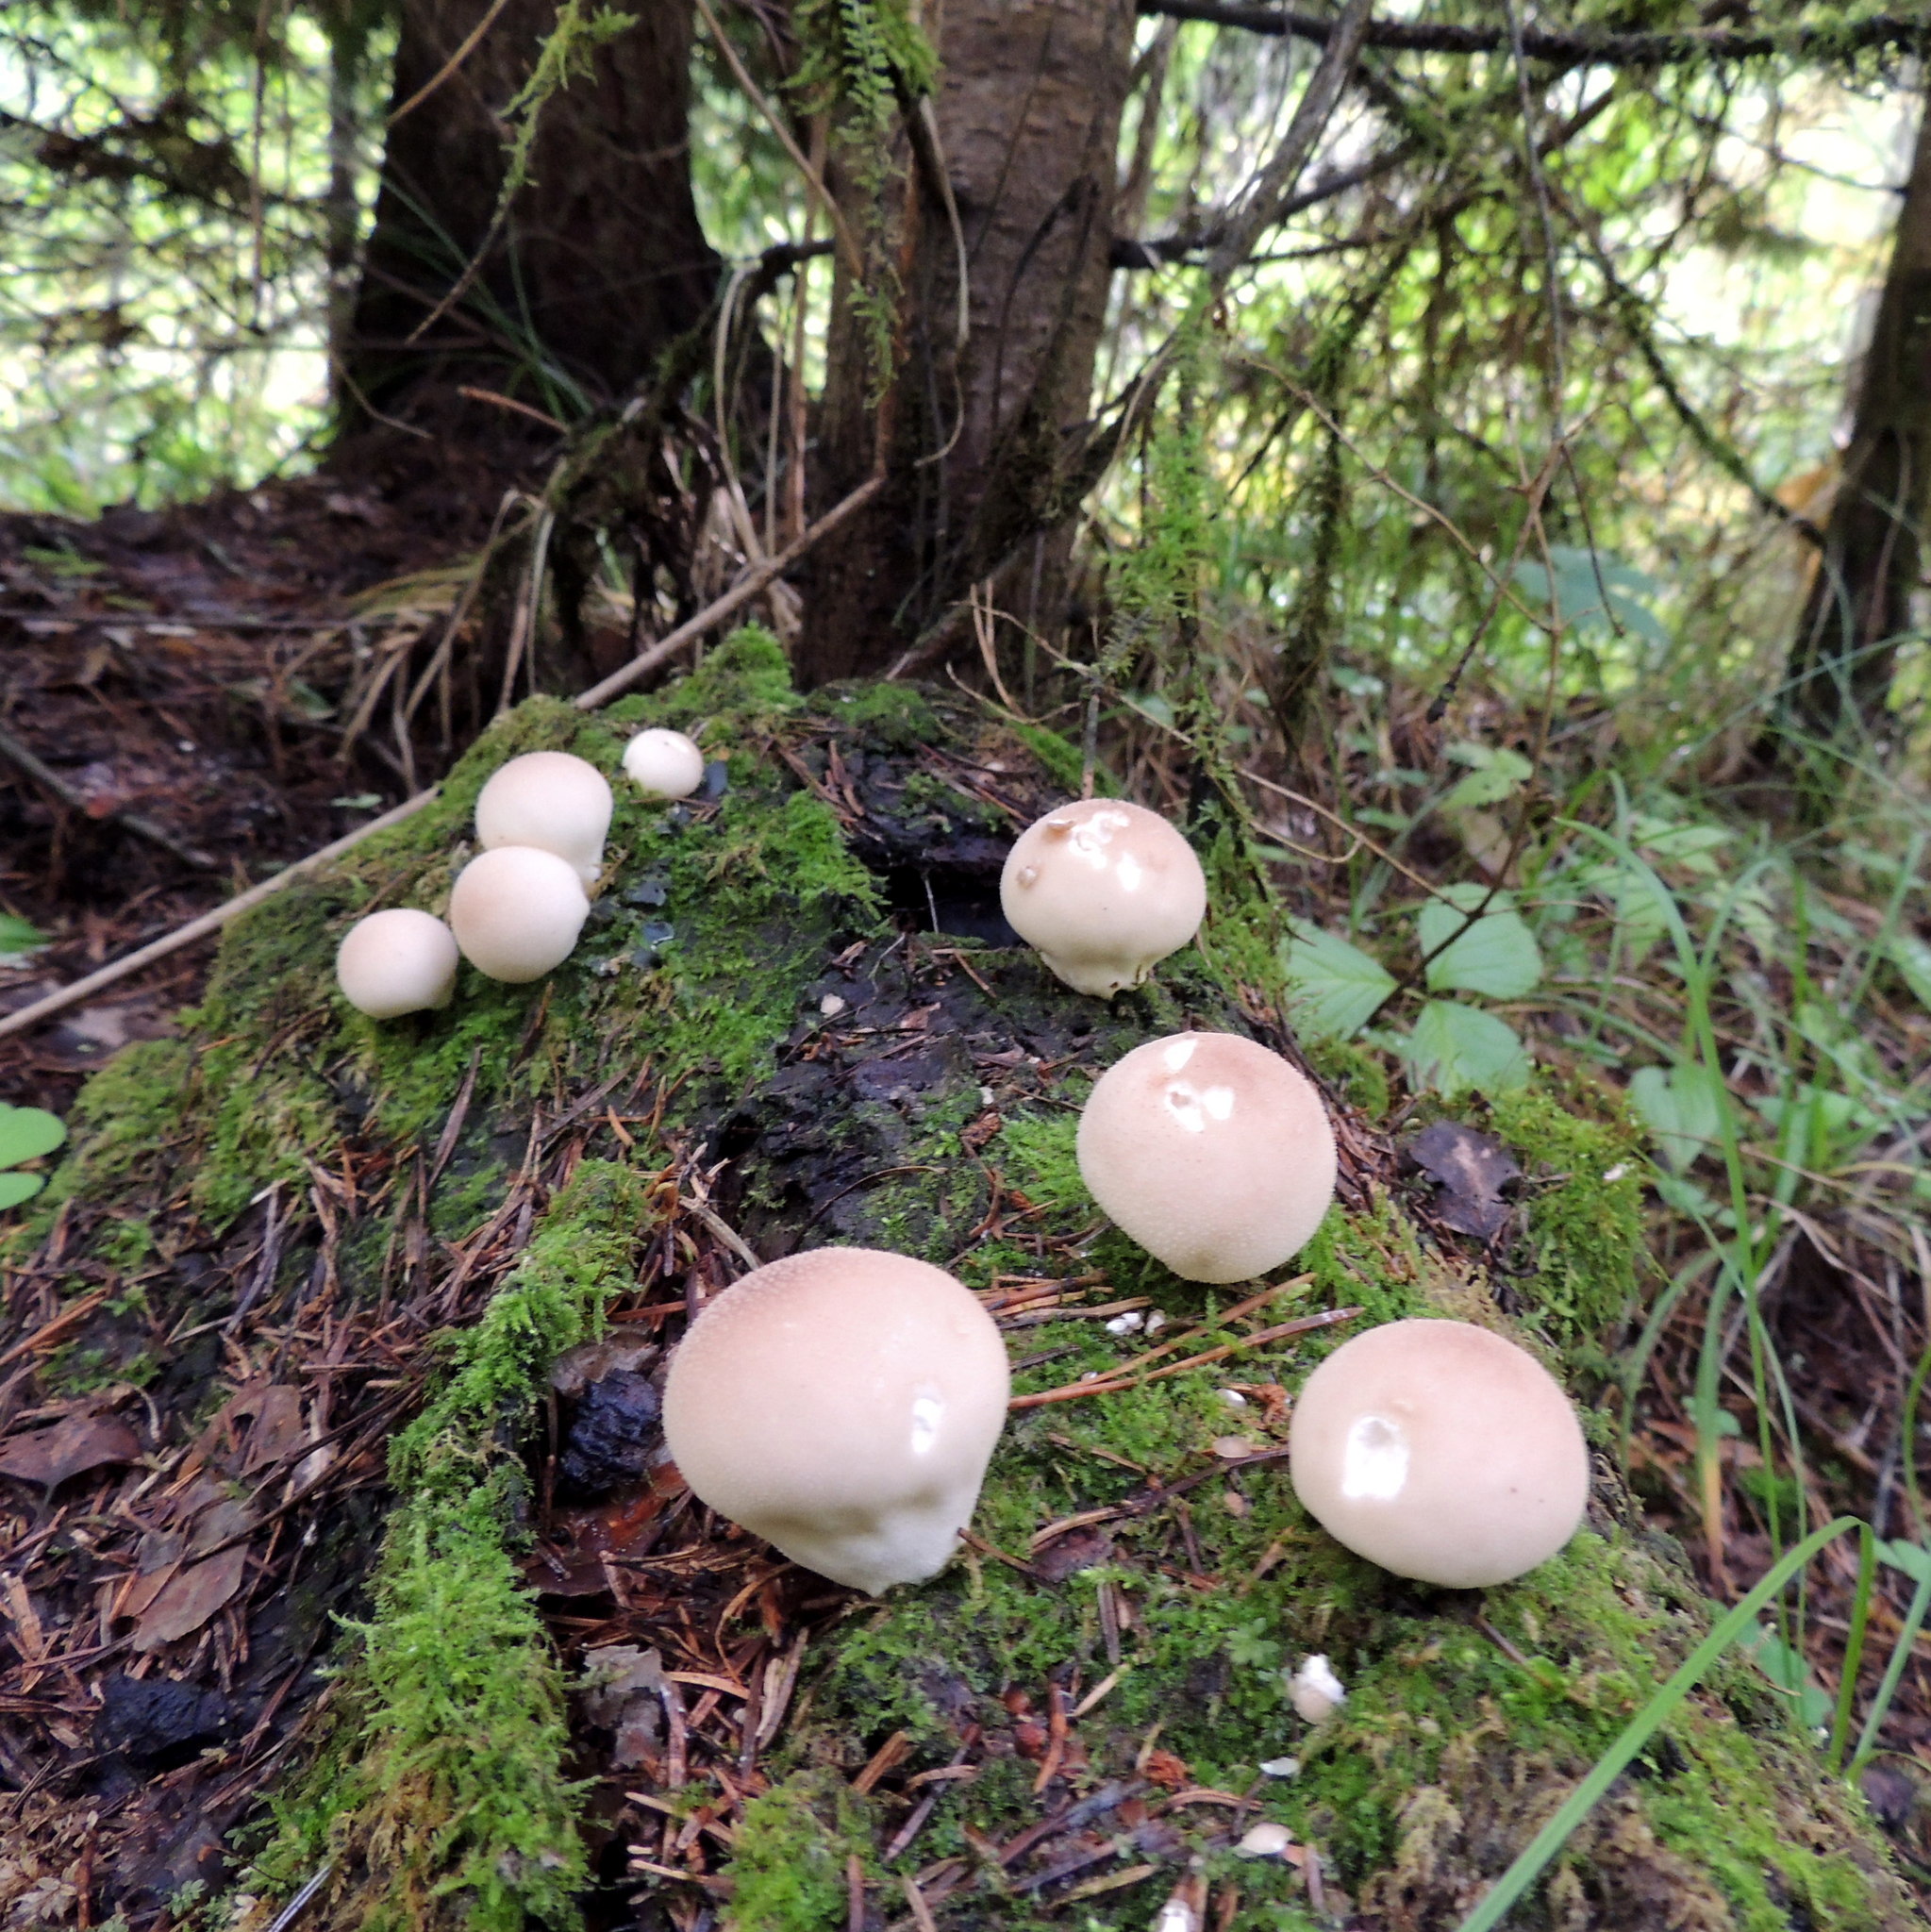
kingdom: Fungi
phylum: Basidiomycota
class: Agaricomycetes
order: Agaricales
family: Lycoperdaceae
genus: Apioperdon
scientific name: Apioperdon pyriforme
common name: Pear-shaped puffball
